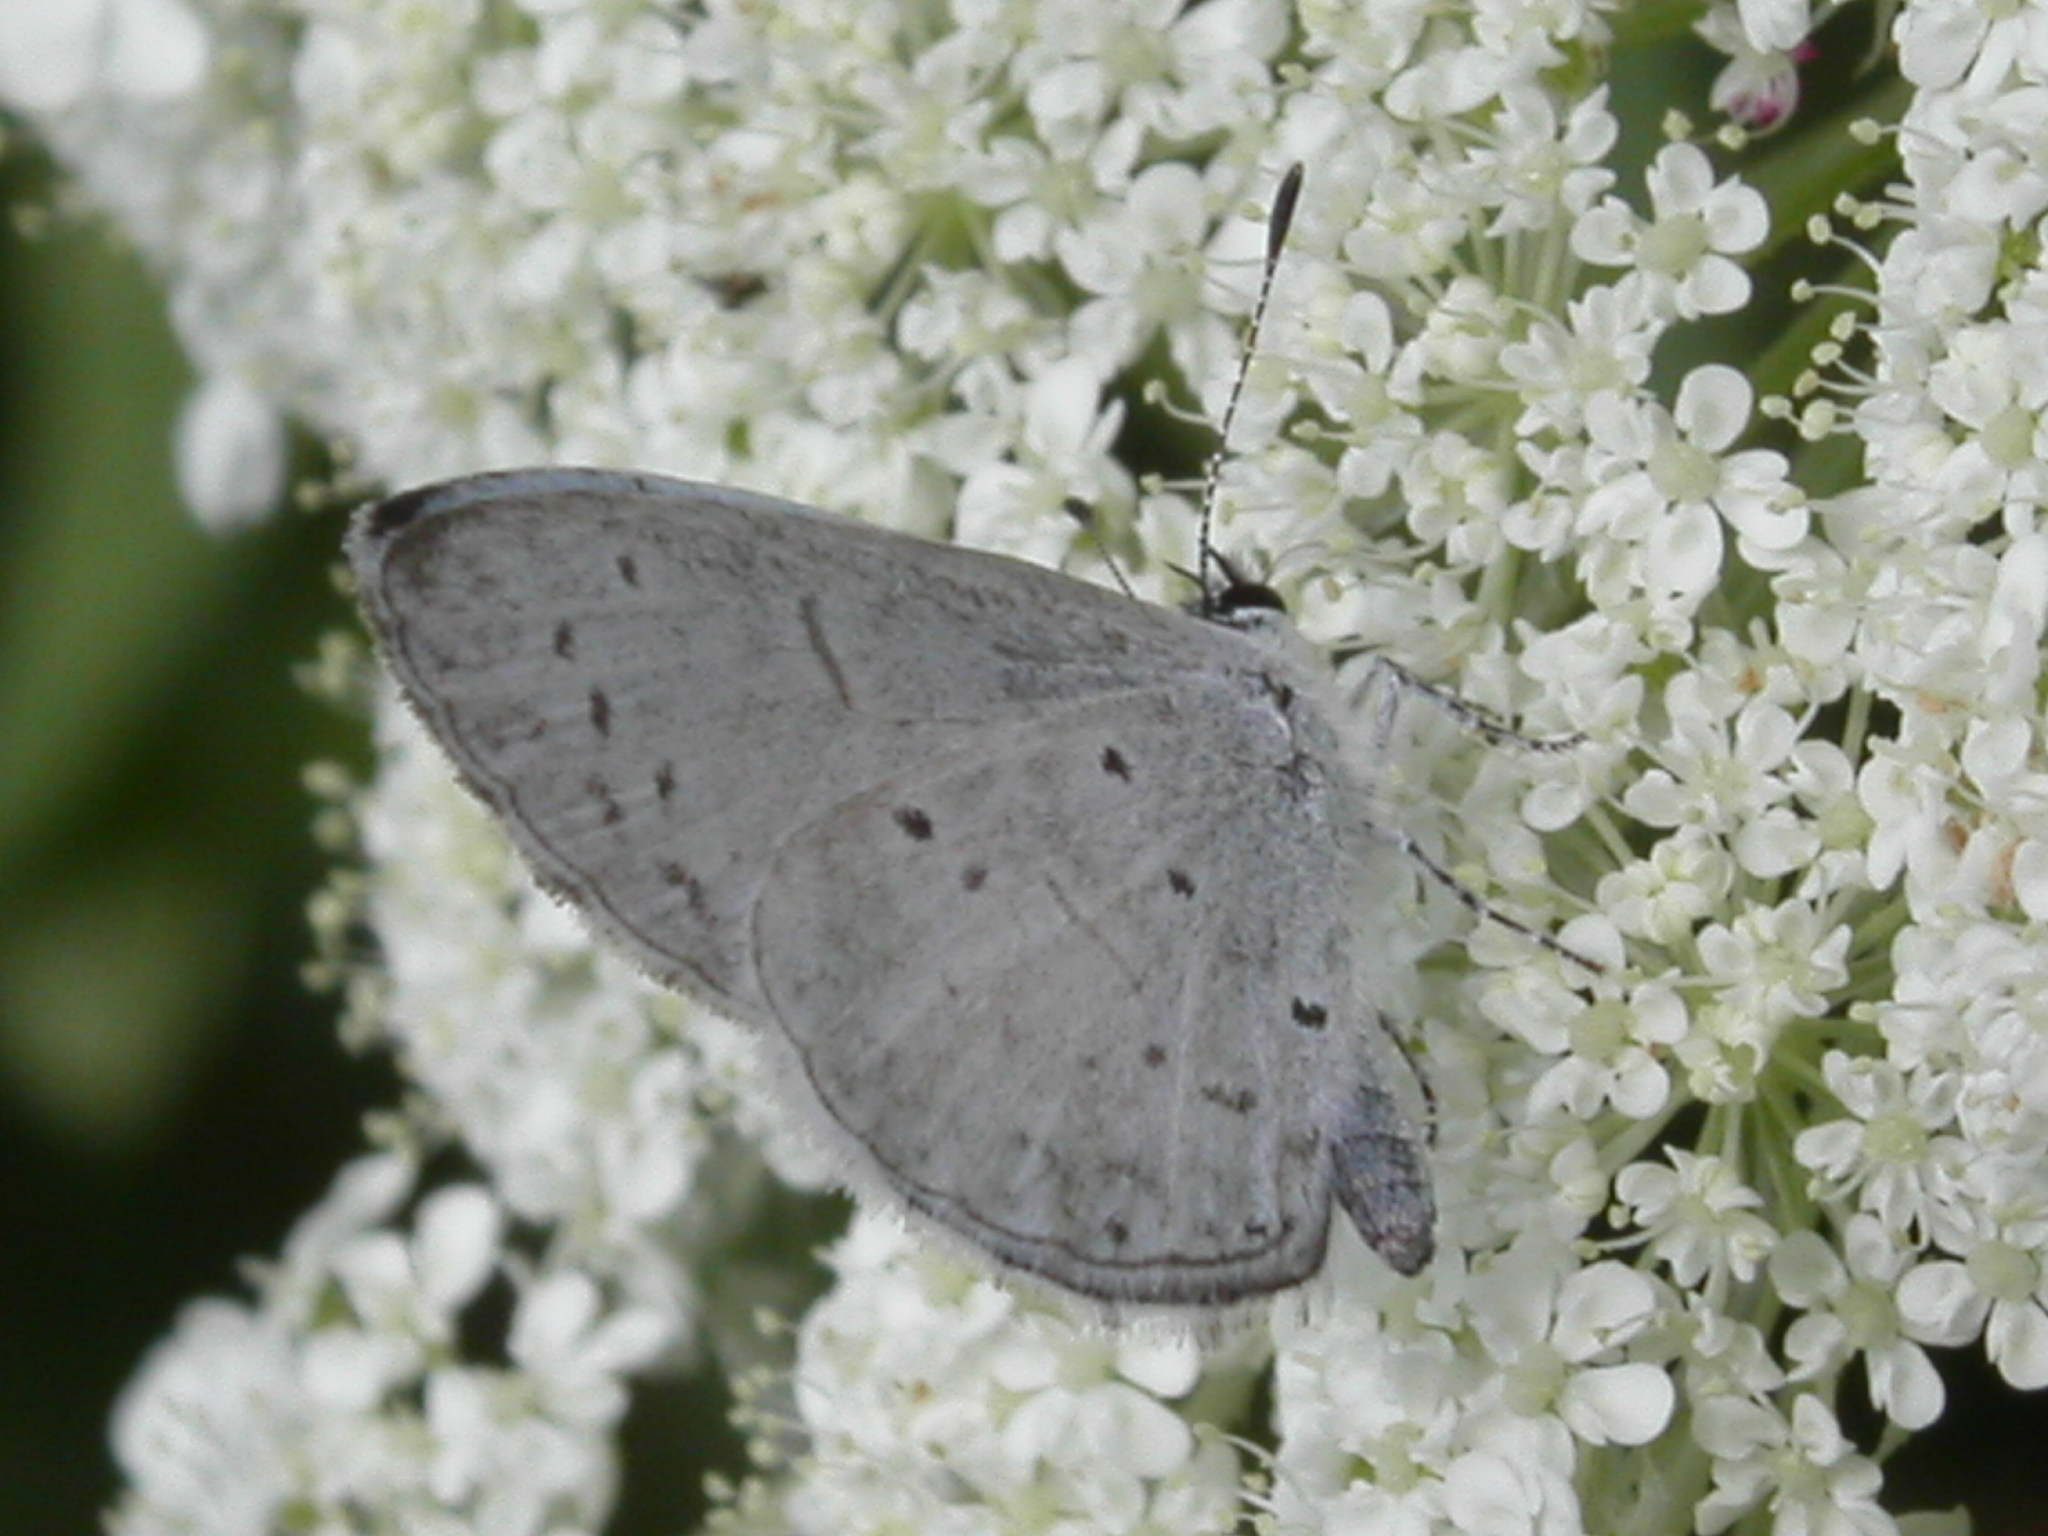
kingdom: Animalia
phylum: Arthropoda
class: Insecta
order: Lepidoptera
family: Lycaenidae
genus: Cyaniris
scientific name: Cyaniris neglecta
